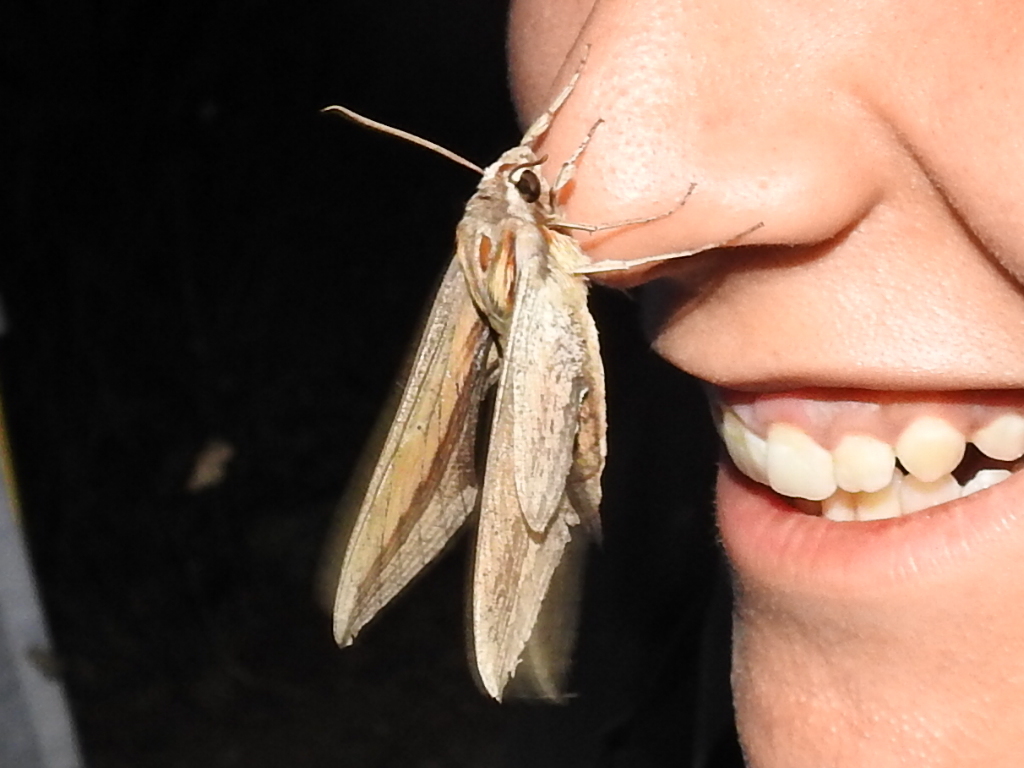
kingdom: Animalia
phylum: Arthropoda
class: Insecta
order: Lepidoptera
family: Sphingidae
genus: Xylophanes
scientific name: Xylophanes falco
